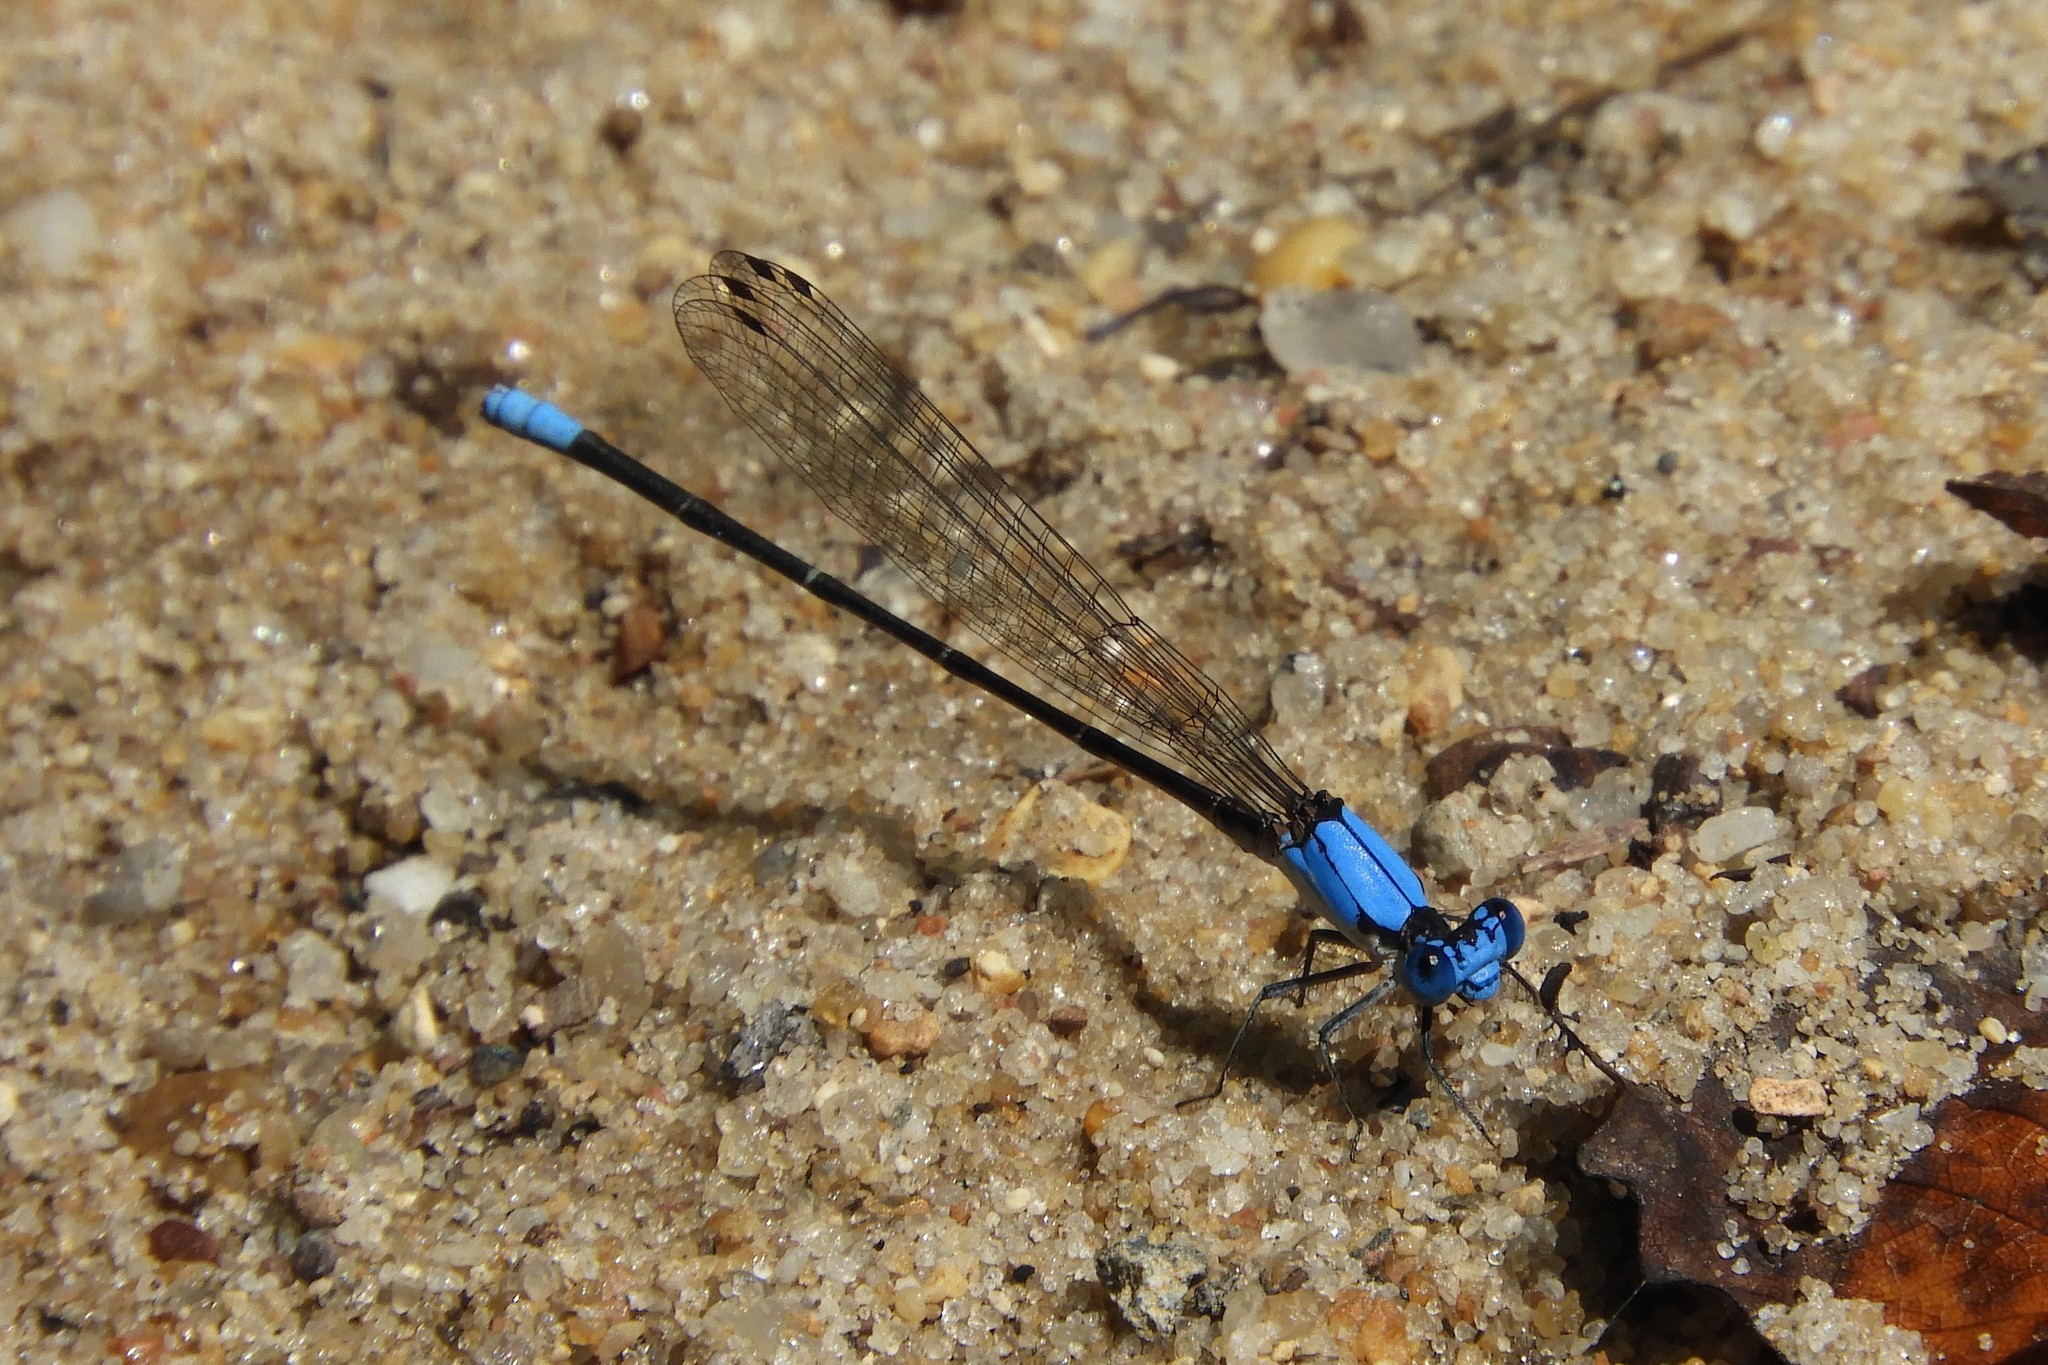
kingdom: Animalia
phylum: Arthropoda
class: Insecta
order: Odonata
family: Coenagrionidae
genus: Argia
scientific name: Argia apicalis
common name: Blue-fronted dancer
